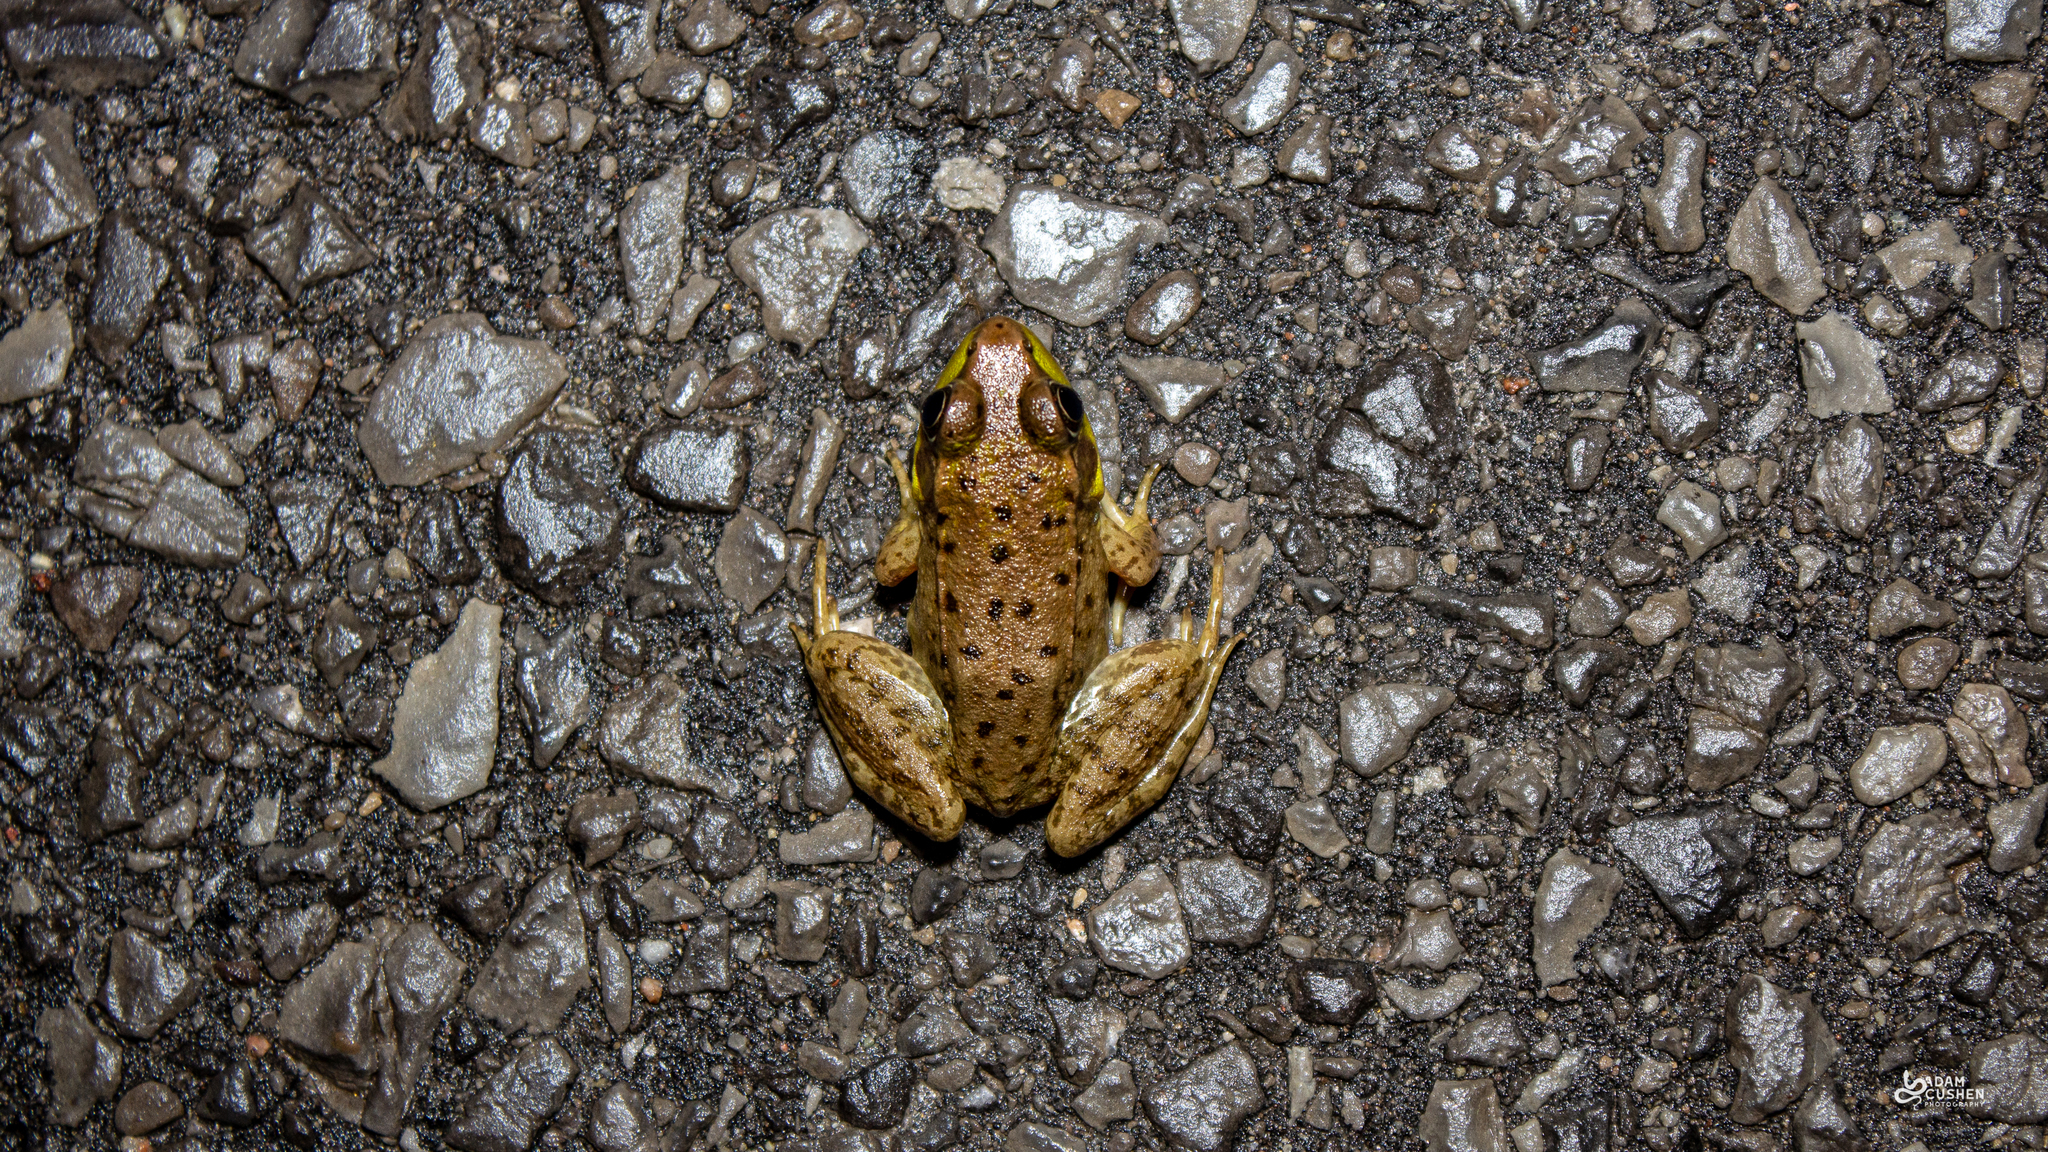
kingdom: Animalia
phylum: Chordata
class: Amphibia
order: Anura
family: Ranidae
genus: Lithobates
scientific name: Lithobates clamitans
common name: Green frog
